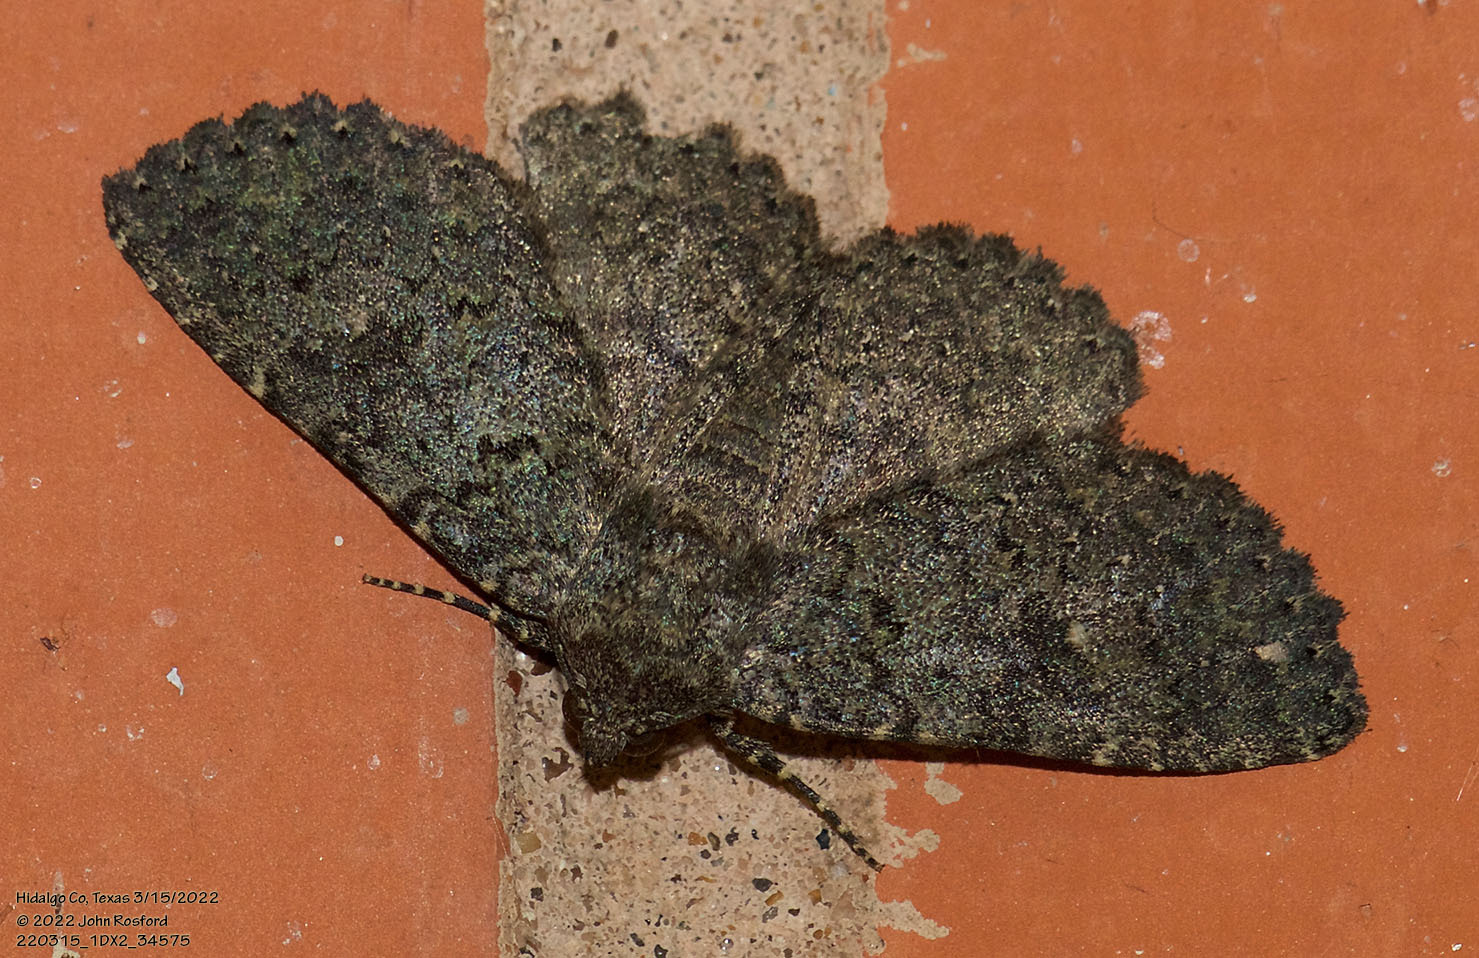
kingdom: Animalia
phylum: Arthropoda
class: Insecta
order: Lepidoptera
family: Erebidae
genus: Matigramma
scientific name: Matigramma obscurior
